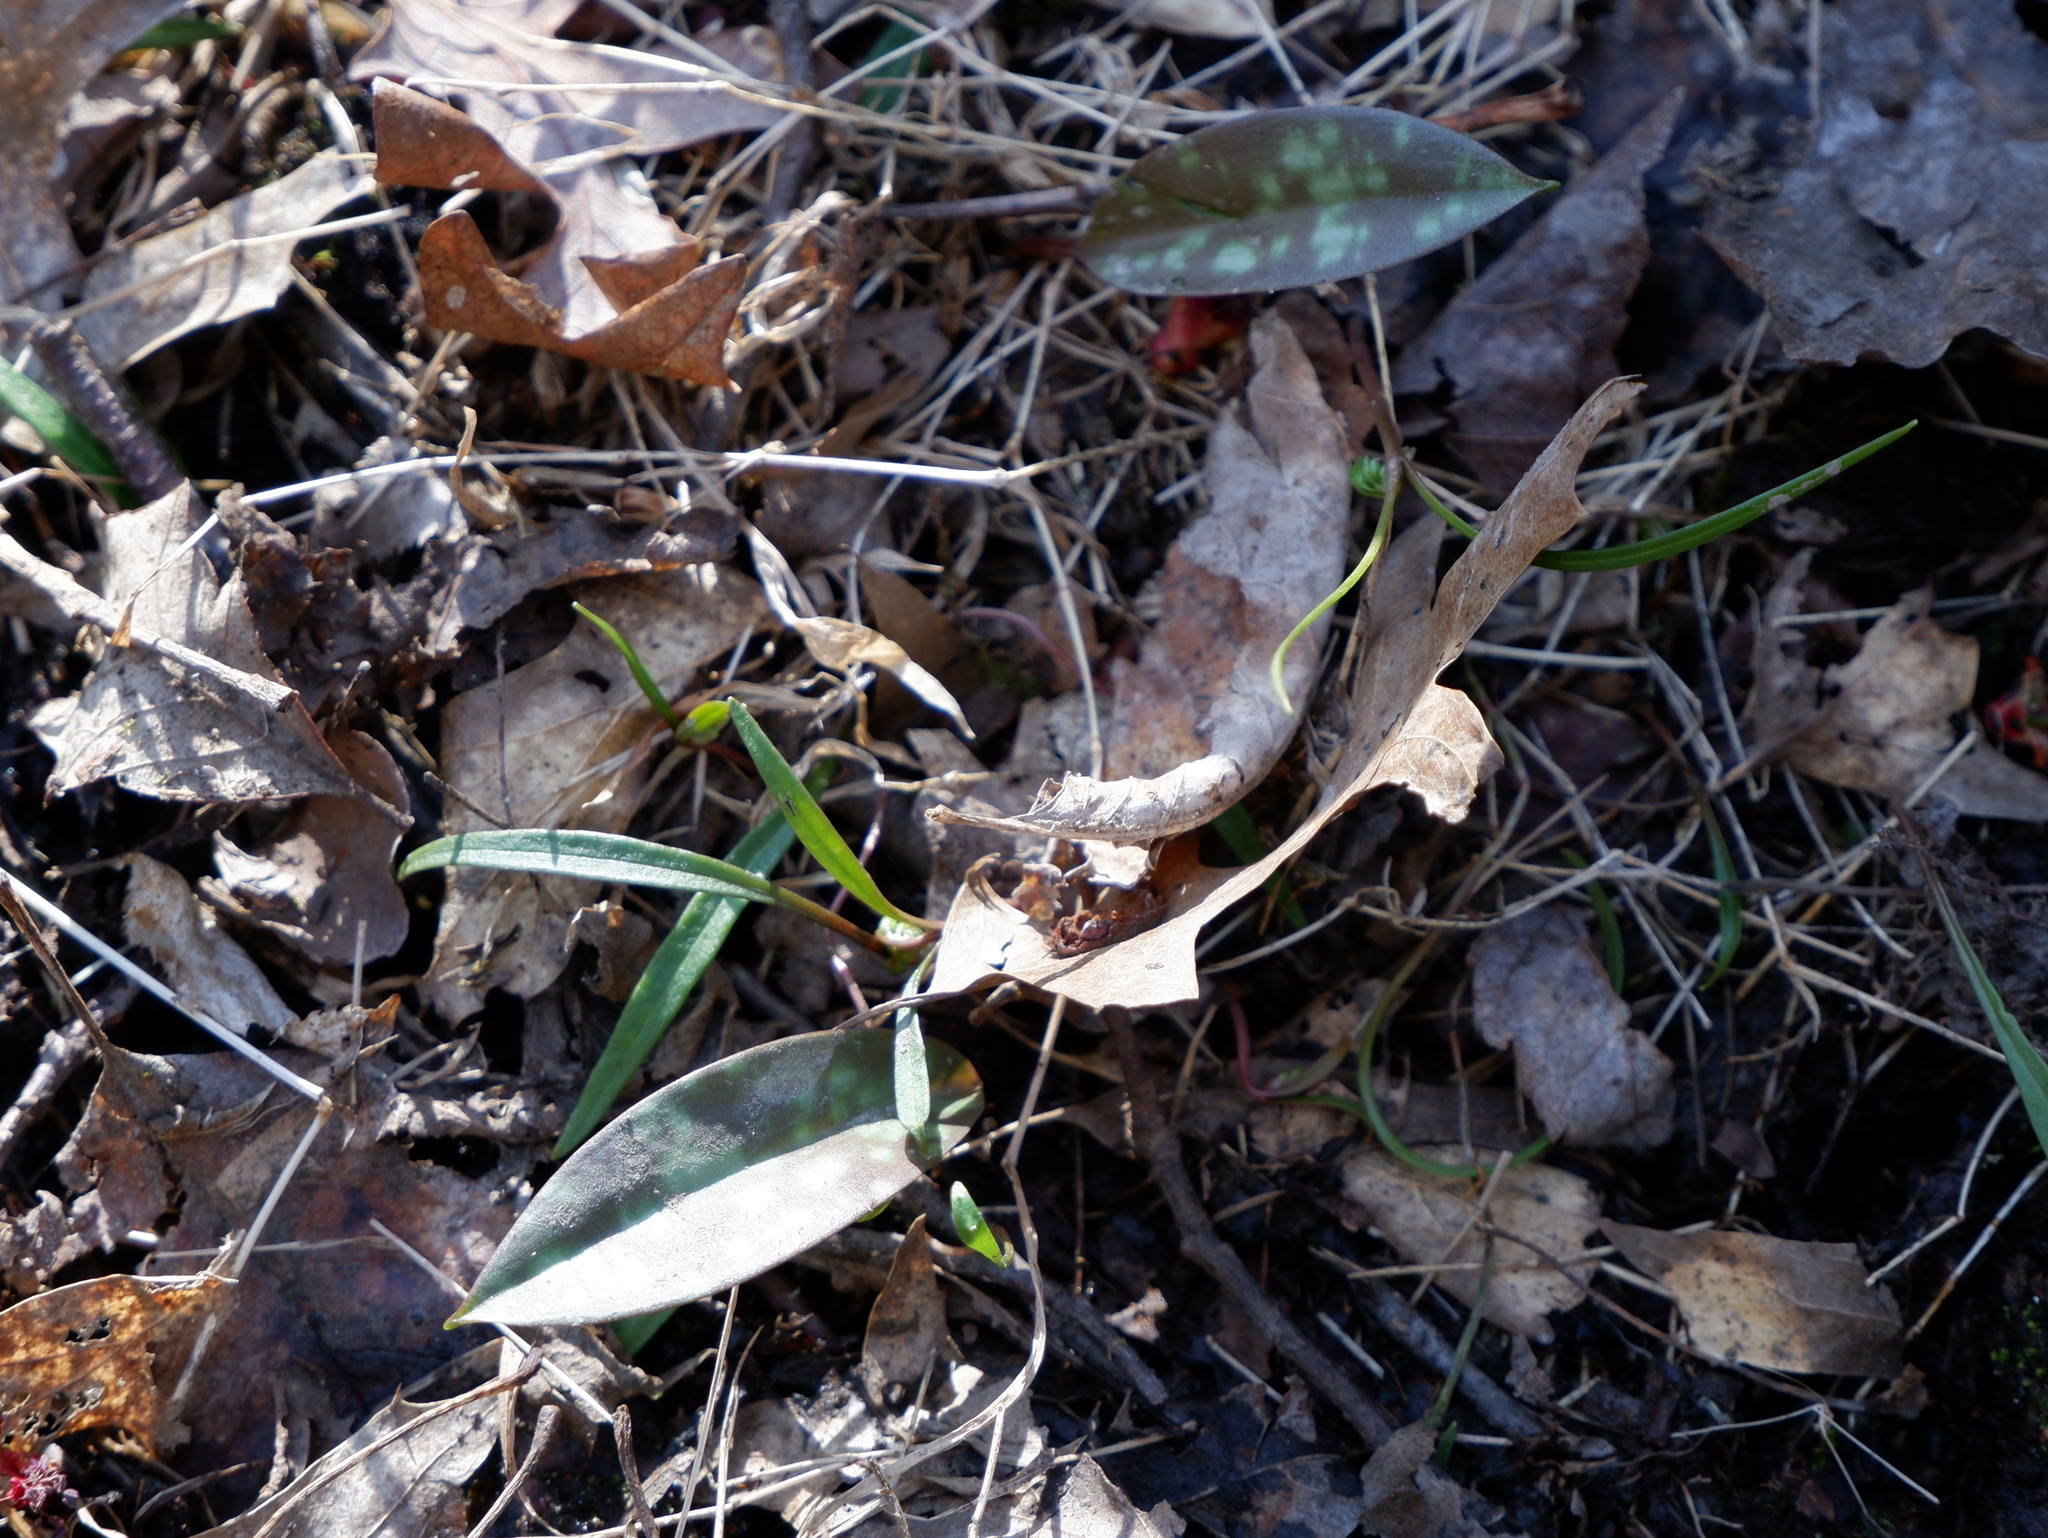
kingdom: Plantae
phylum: Tracheophyta
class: Liliopsida
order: Liliales
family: Liliaceae
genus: Erythronium
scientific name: Erythronium americanum
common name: Yellow adder's-tongue
